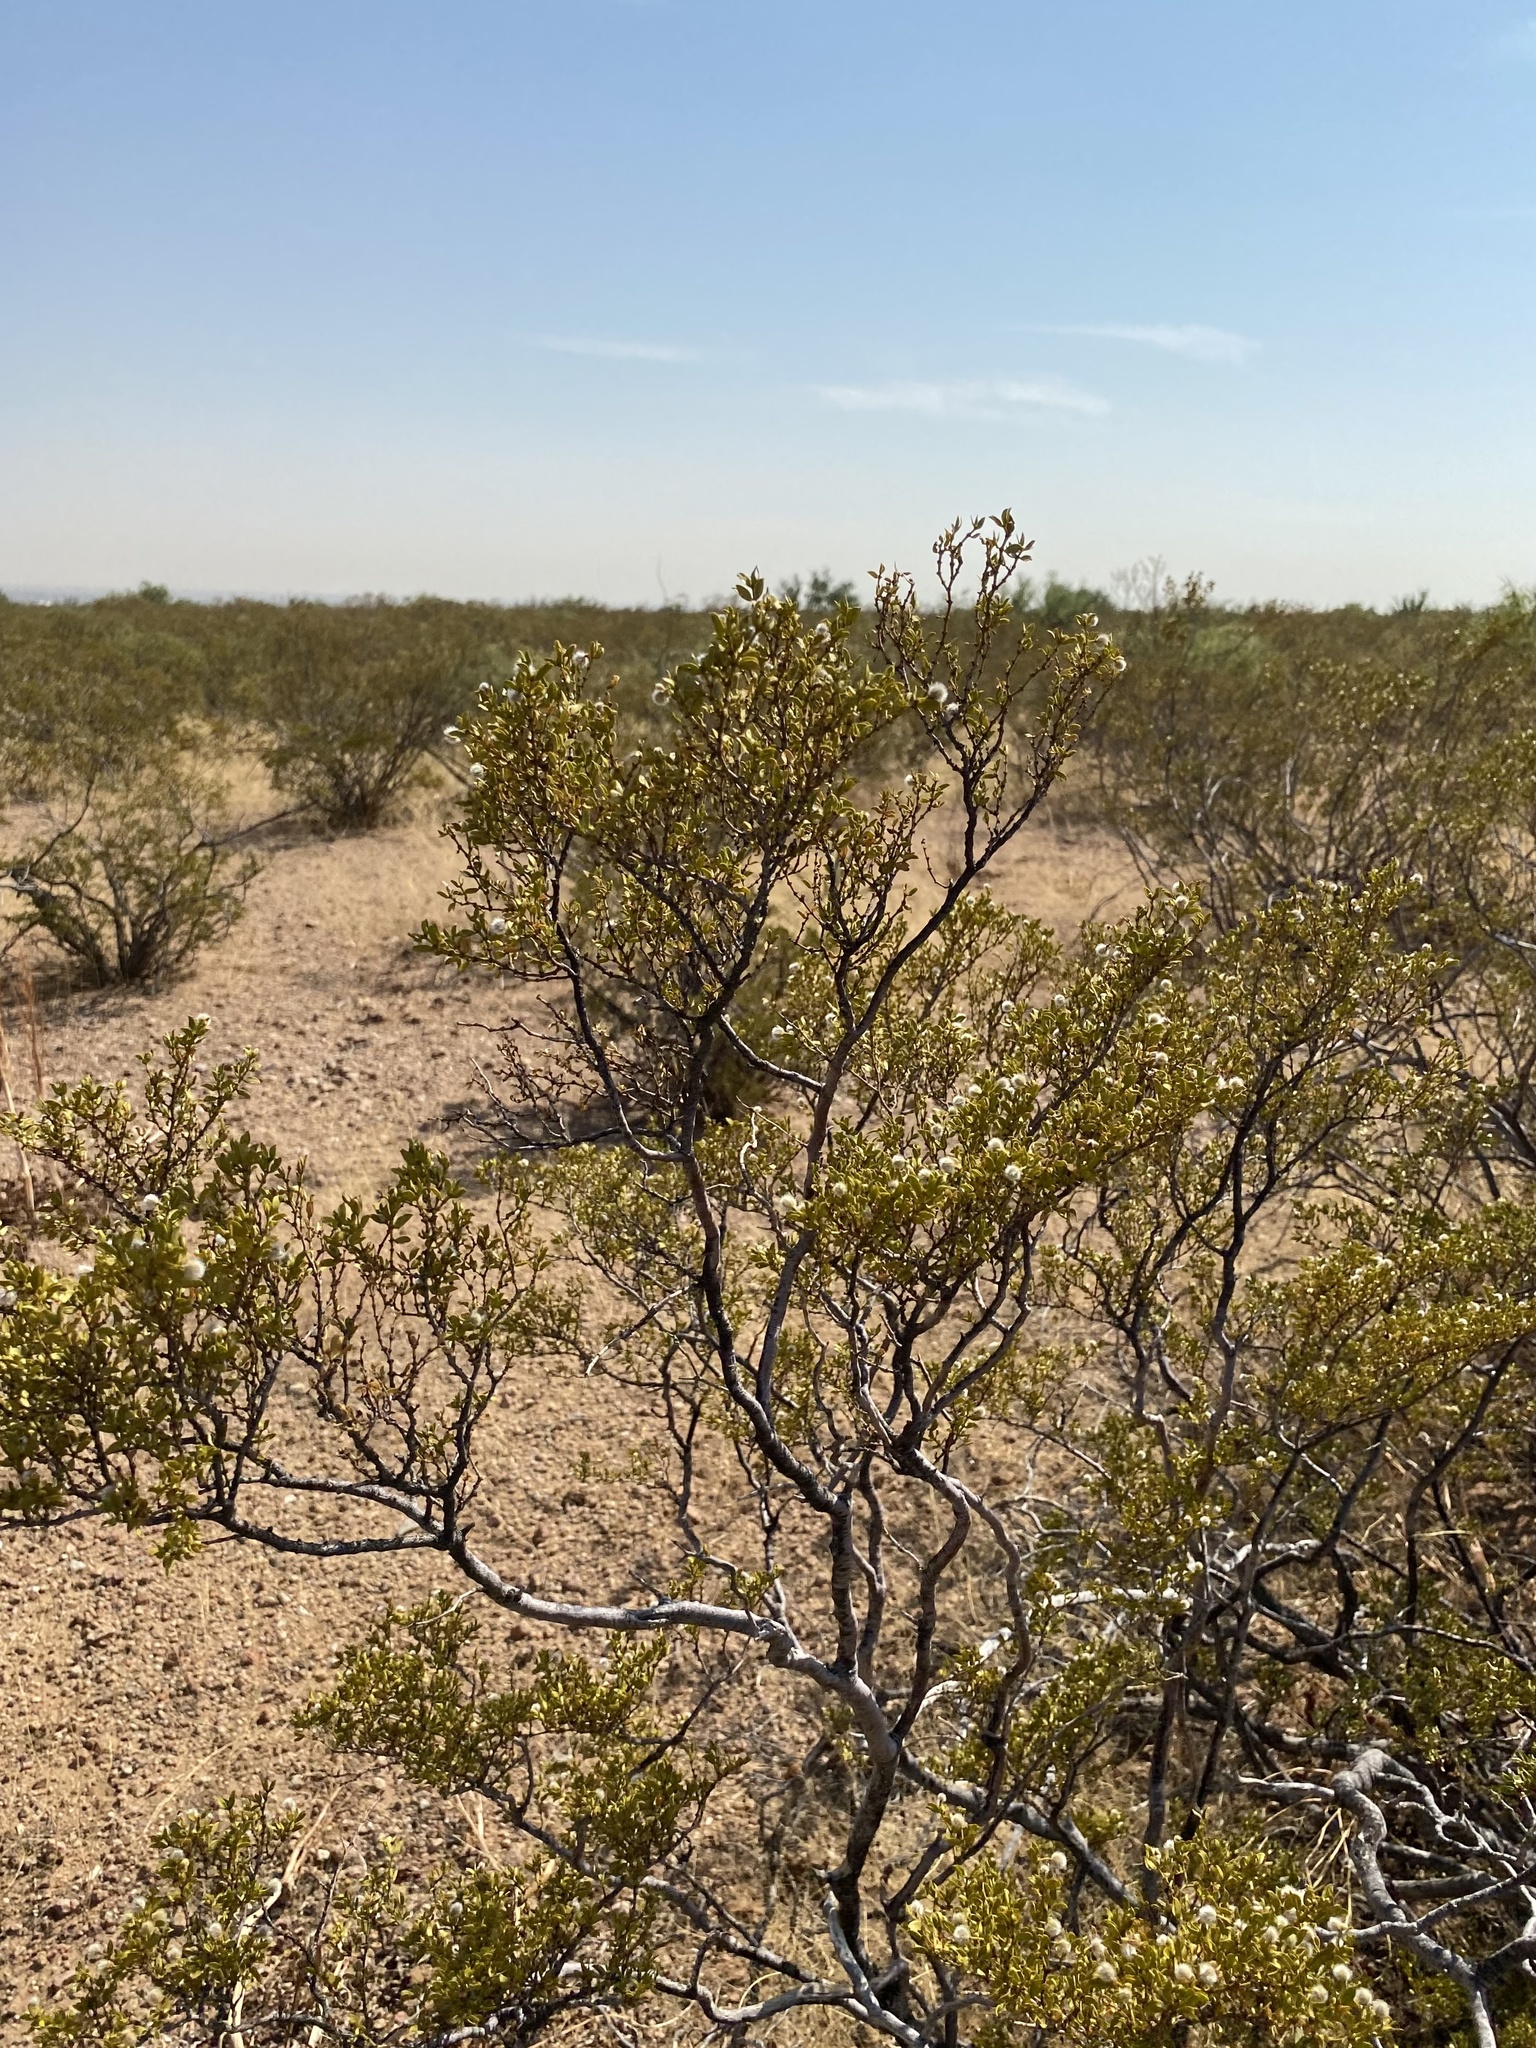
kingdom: Plantae
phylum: Tracheophyta
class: Magnoliopsida
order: Zygophyllales
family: Zygophyllaceae
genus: Larrea
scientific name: Larrea tridentata
